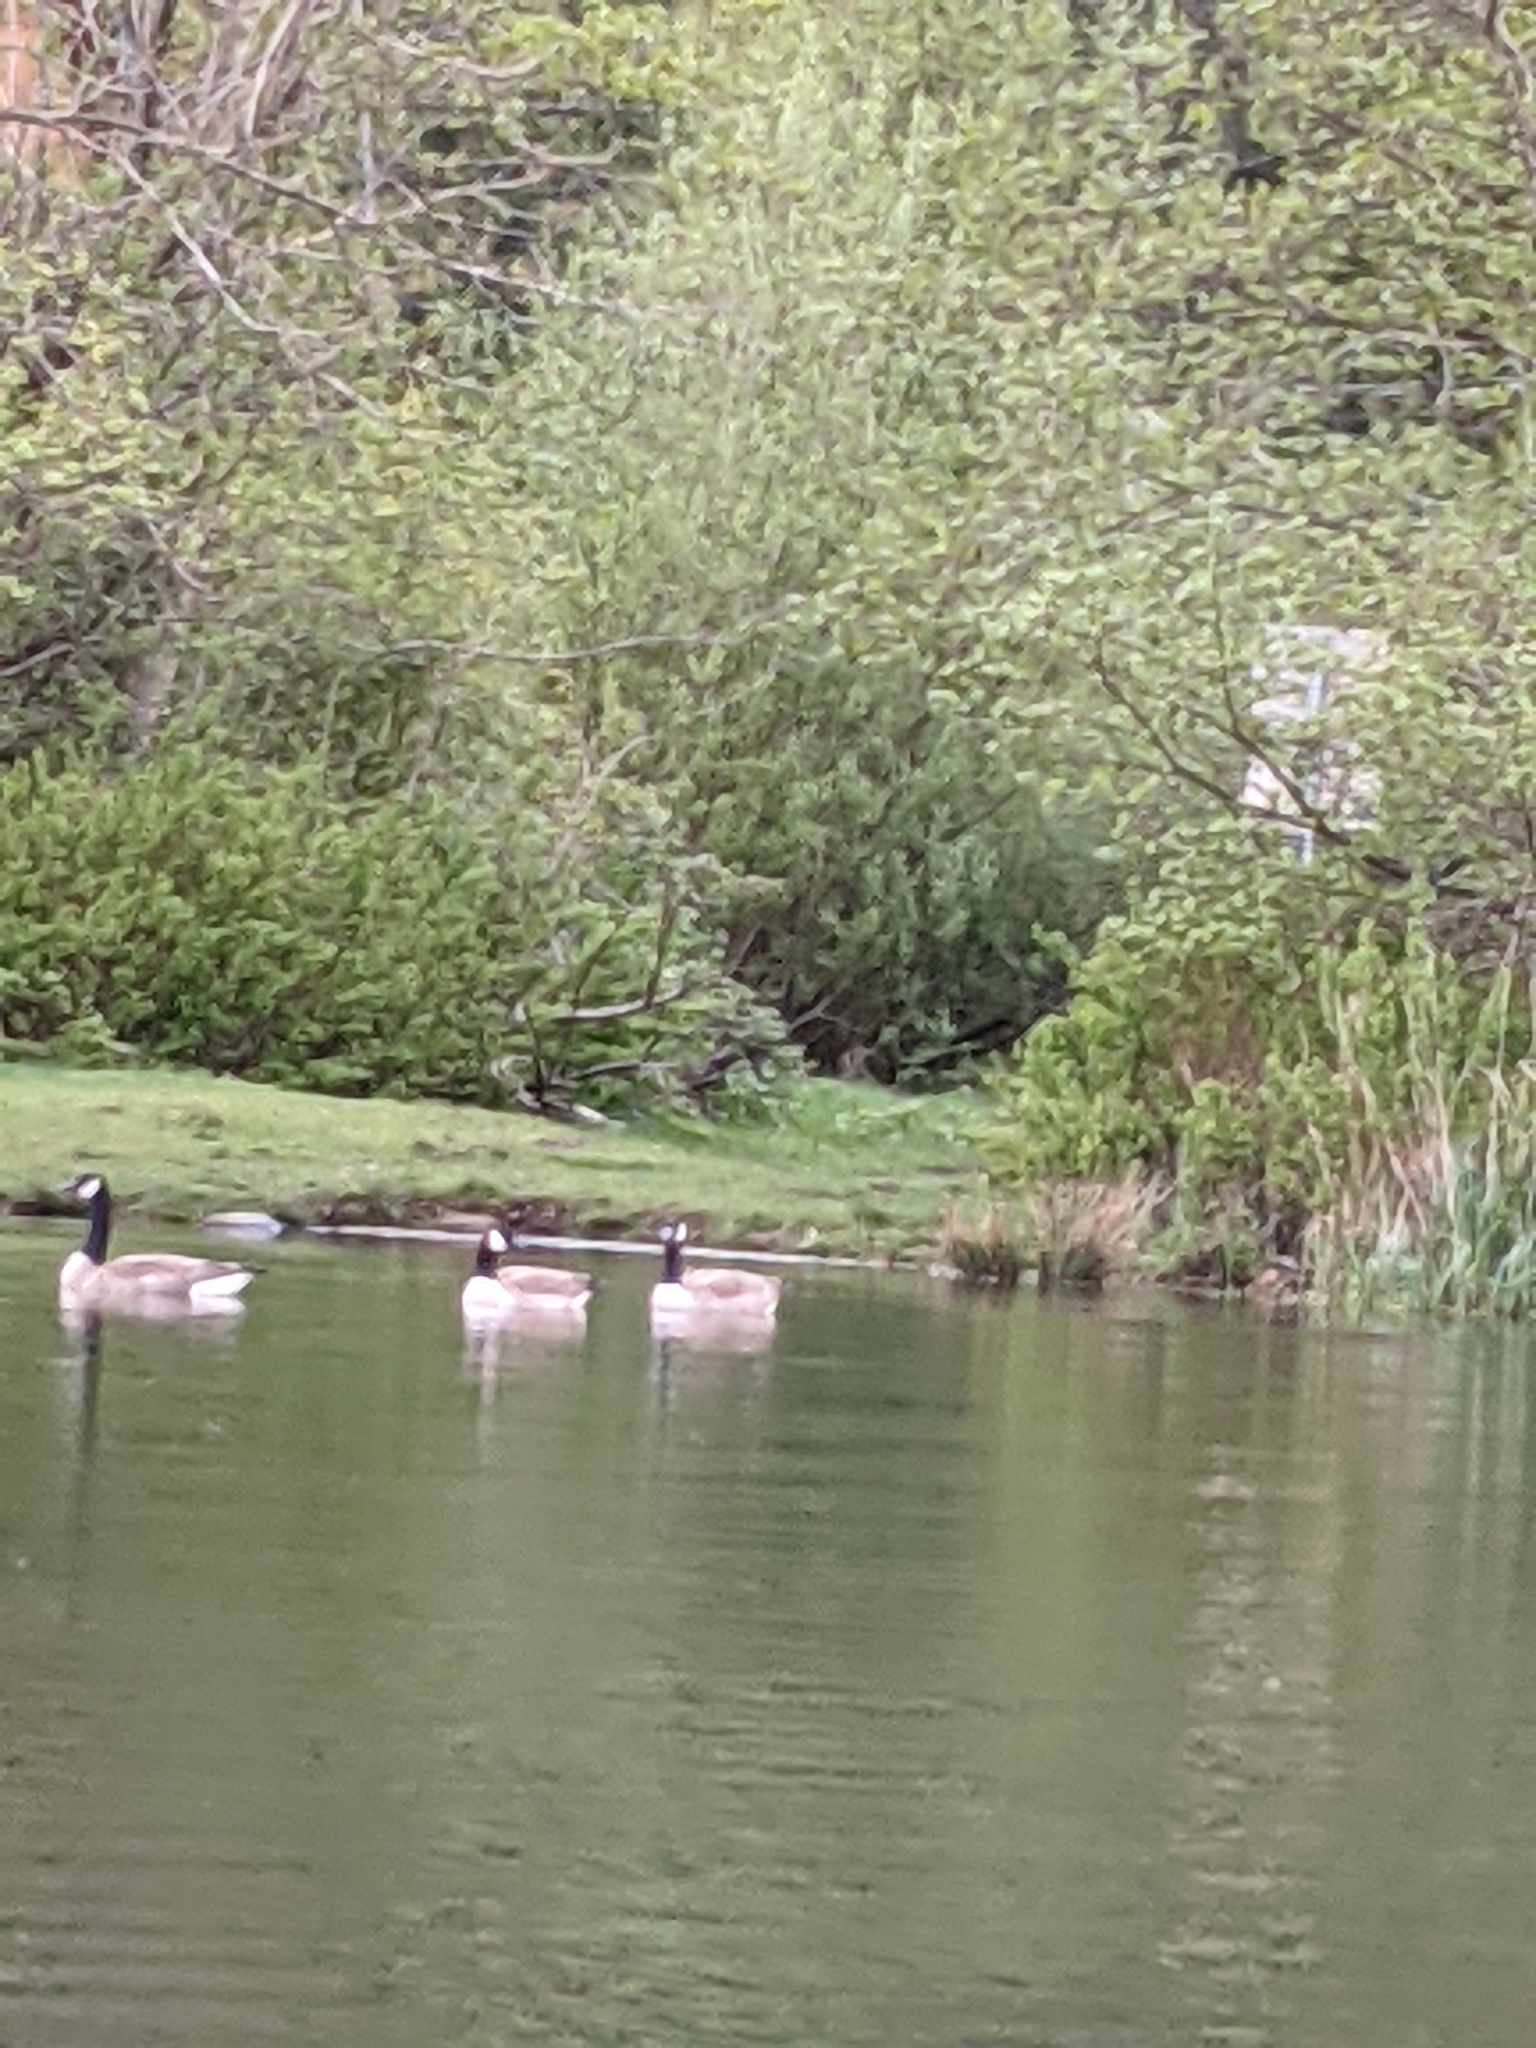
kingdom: Animalia
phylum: Chordata
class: Aves
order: Anseriformes
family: Anatidae
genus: Branta
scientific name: Branta canadensis
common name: Canada goose
